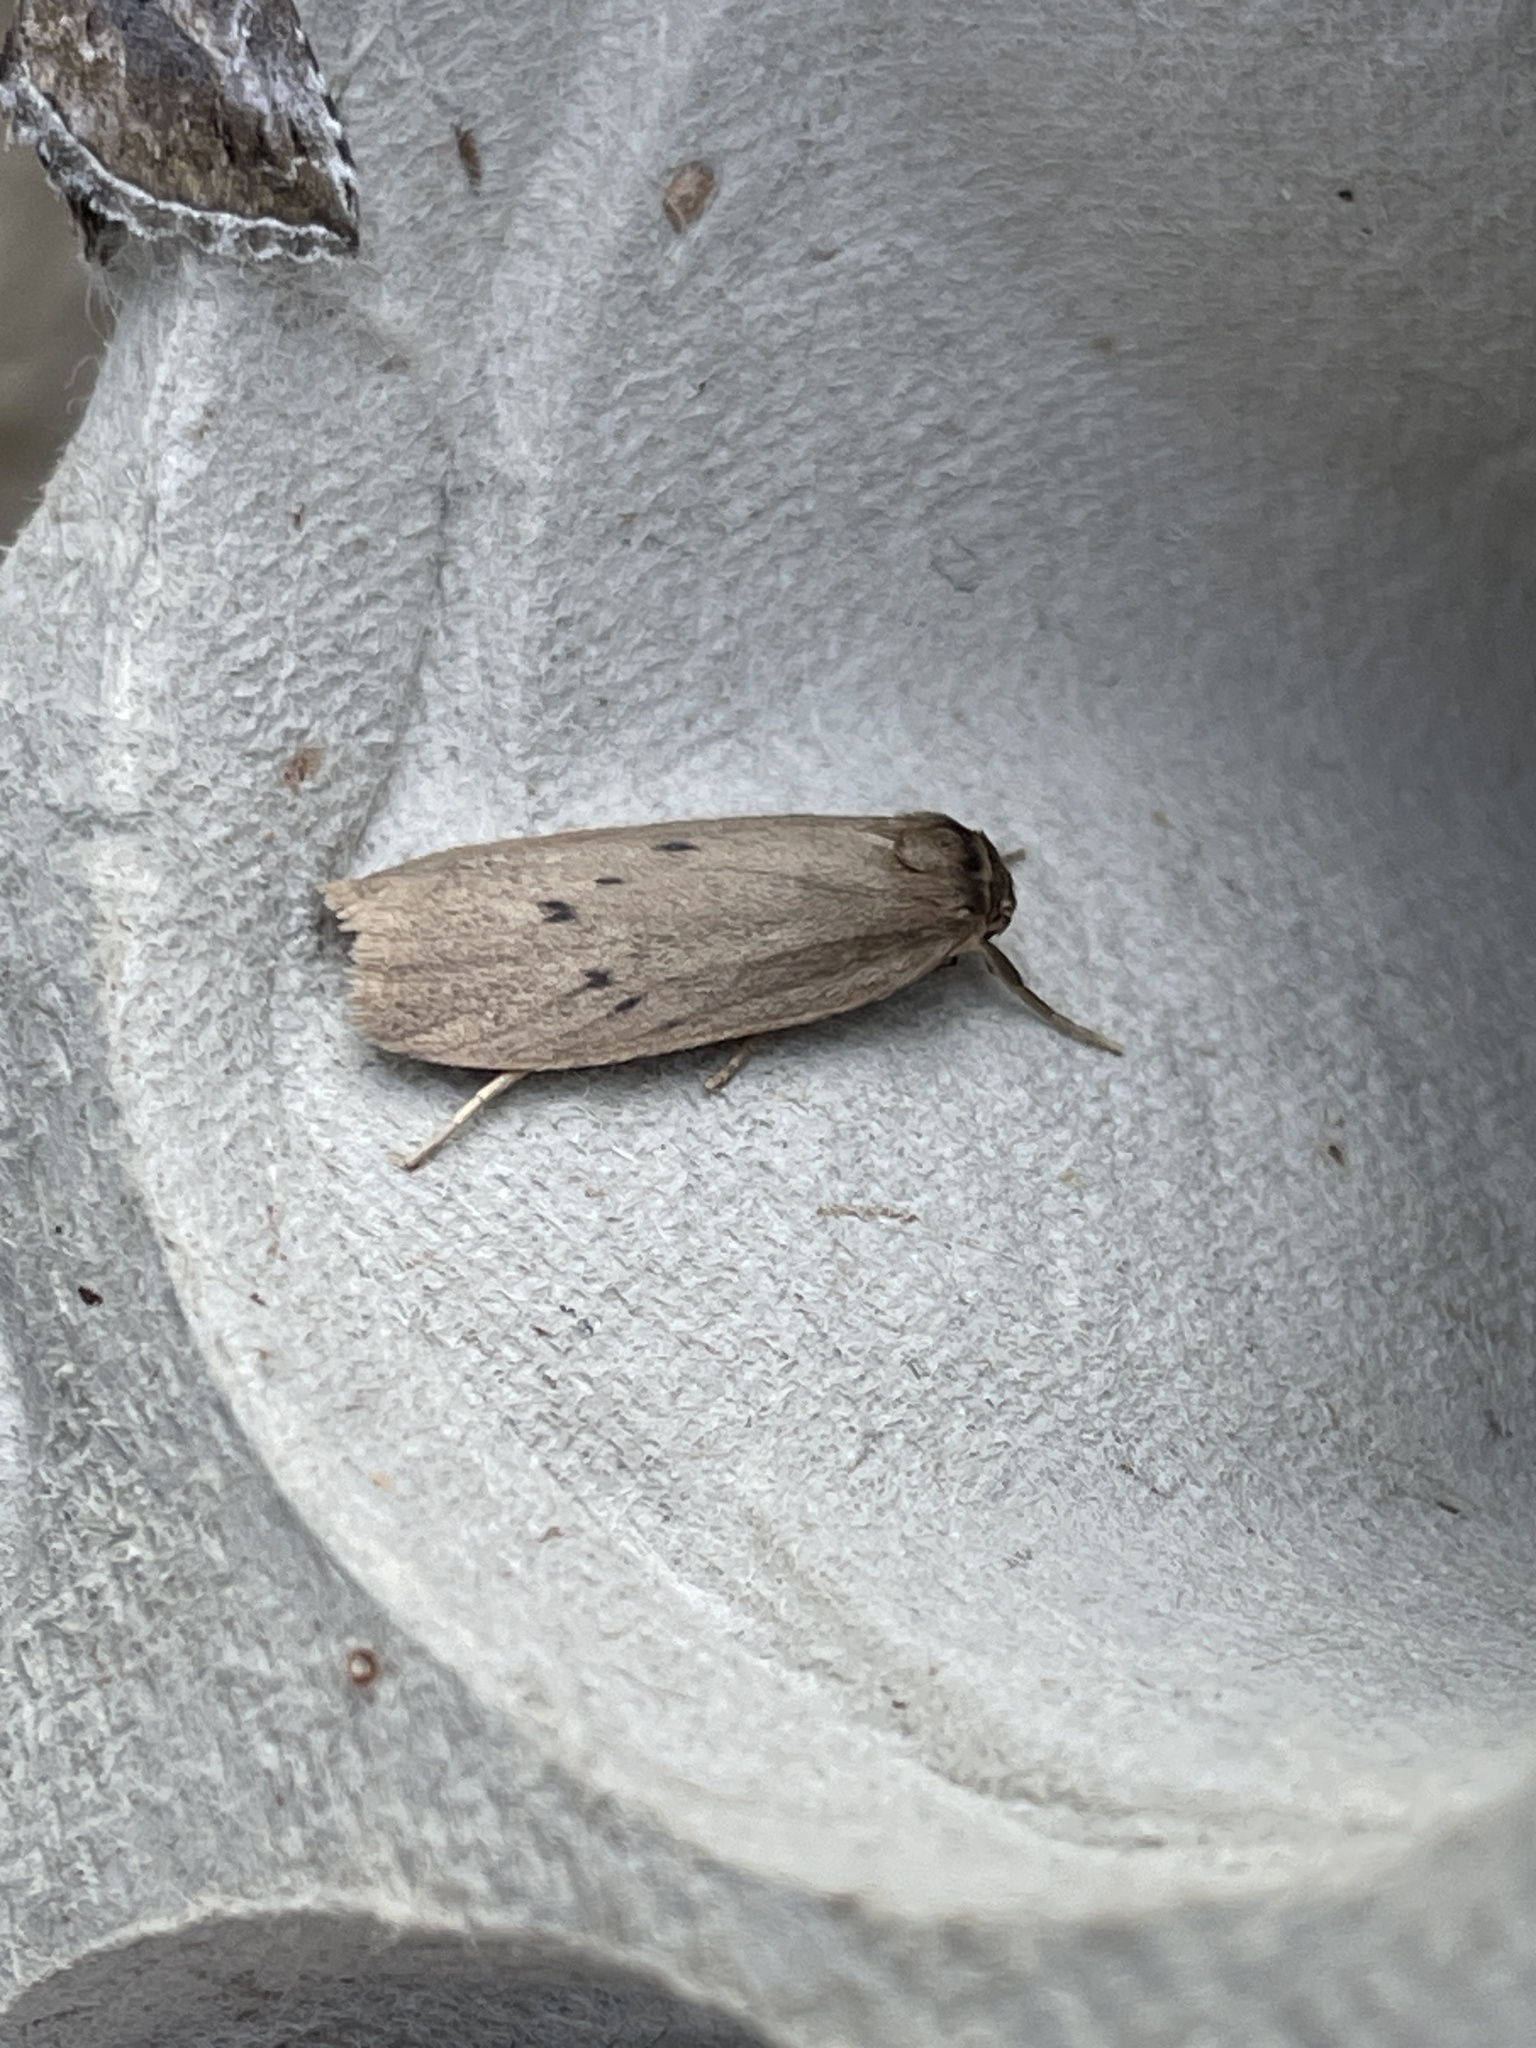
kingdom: Animalia
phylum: Arthropoda
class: Insecta
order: Lepidoptera
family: Erebidae
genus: Pelosia
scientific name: Pelosia obtusa
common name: Small dotted footman
